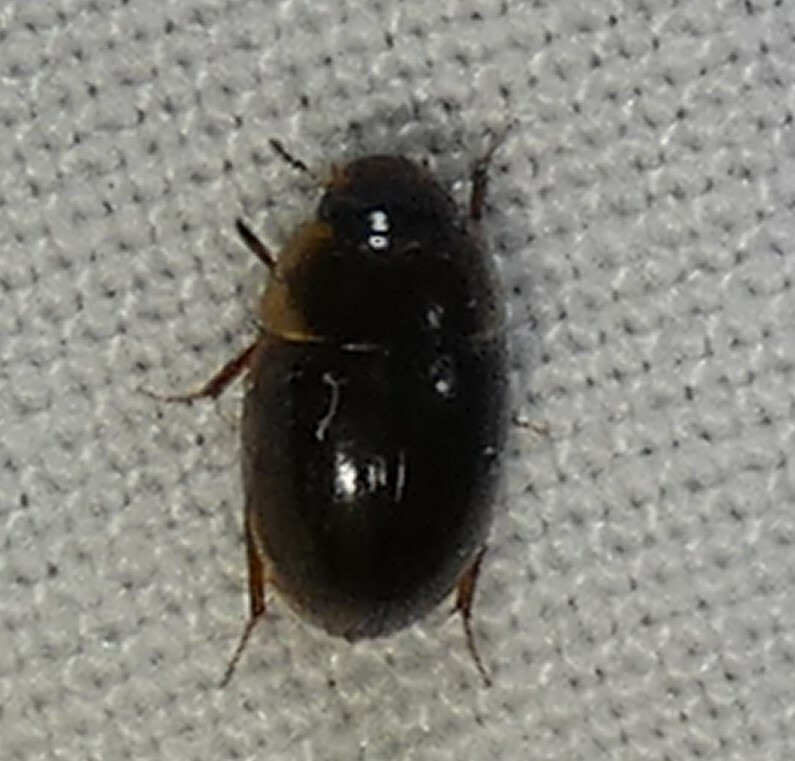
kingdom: Animalia
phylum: Arthropoda
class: Insecta
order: Coleoptera
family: Hydrophilidae
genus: Enochrus
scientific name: Enochrus
